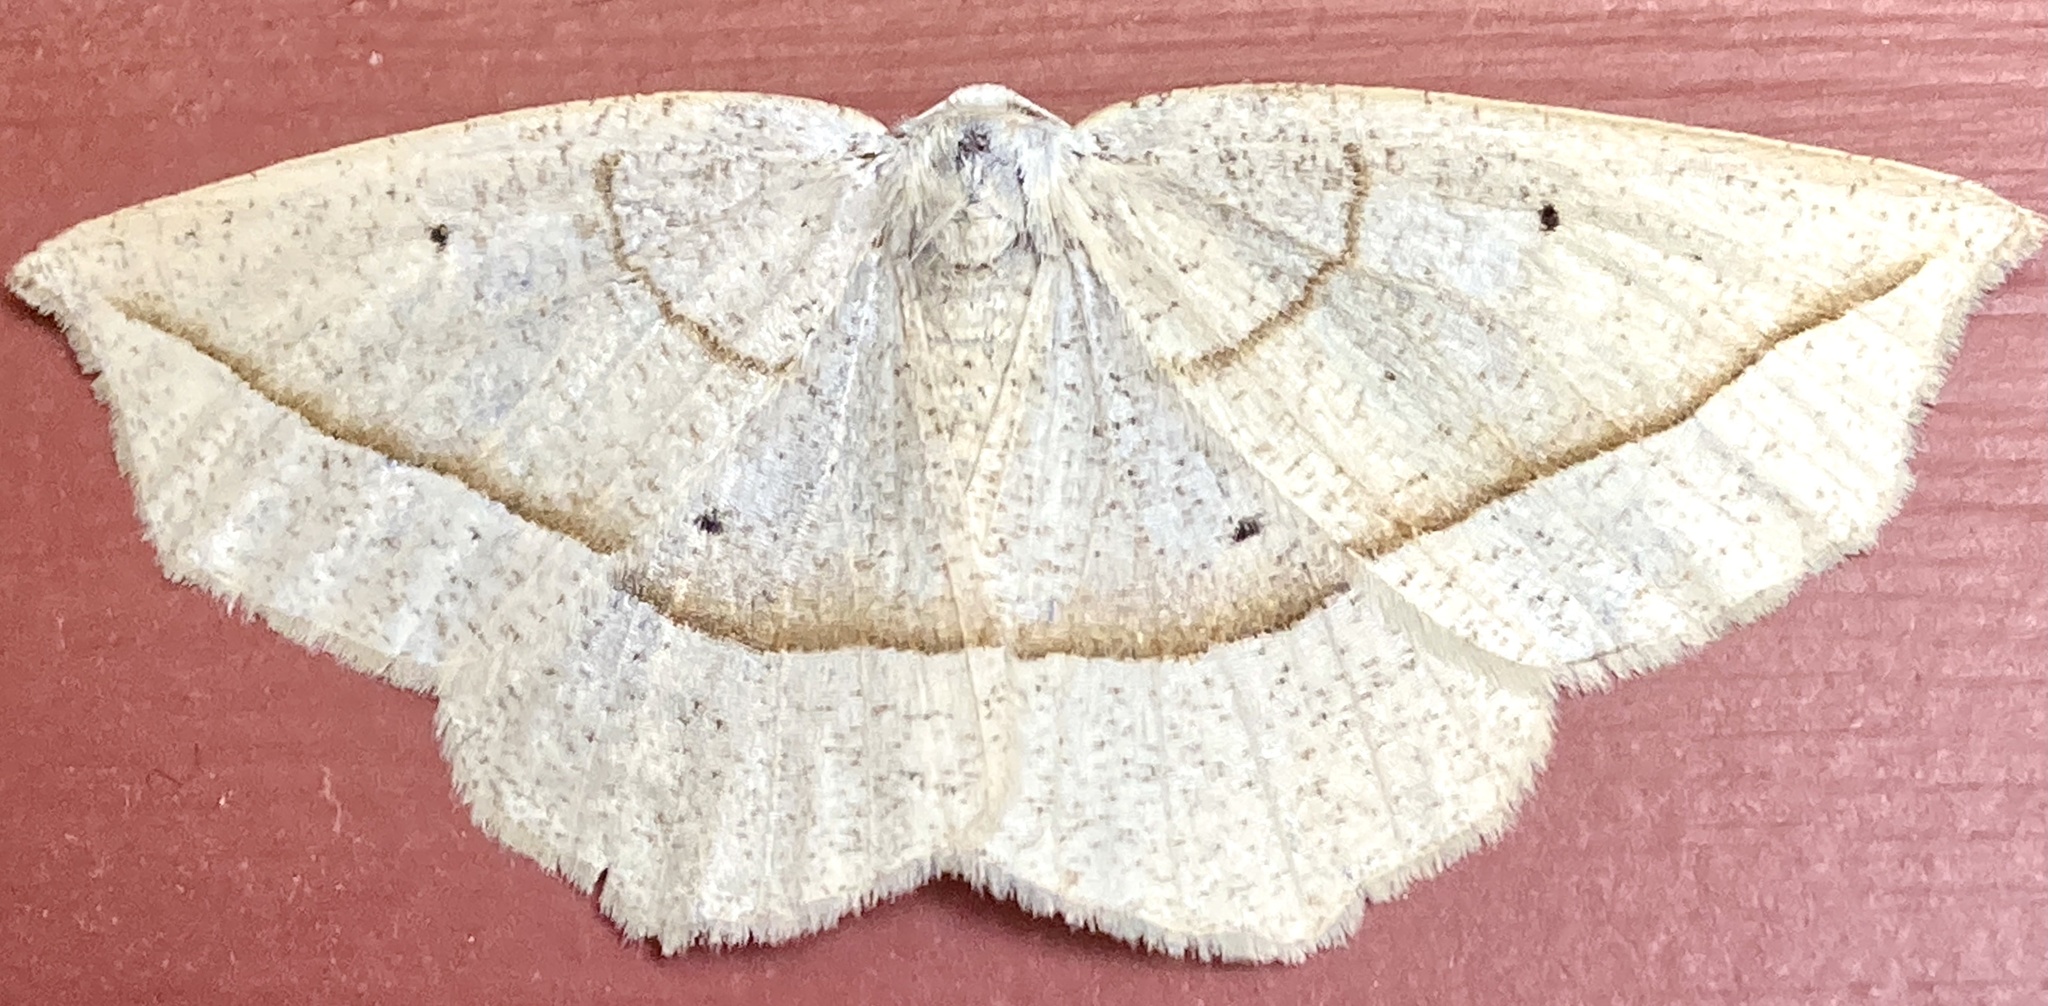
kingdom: Animalia
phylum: Arthropoda
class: Insecta
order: Lepidoptera
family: Geometridae
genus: Eusarca
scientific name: Eusarca confusaria
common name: Confused eusarca
